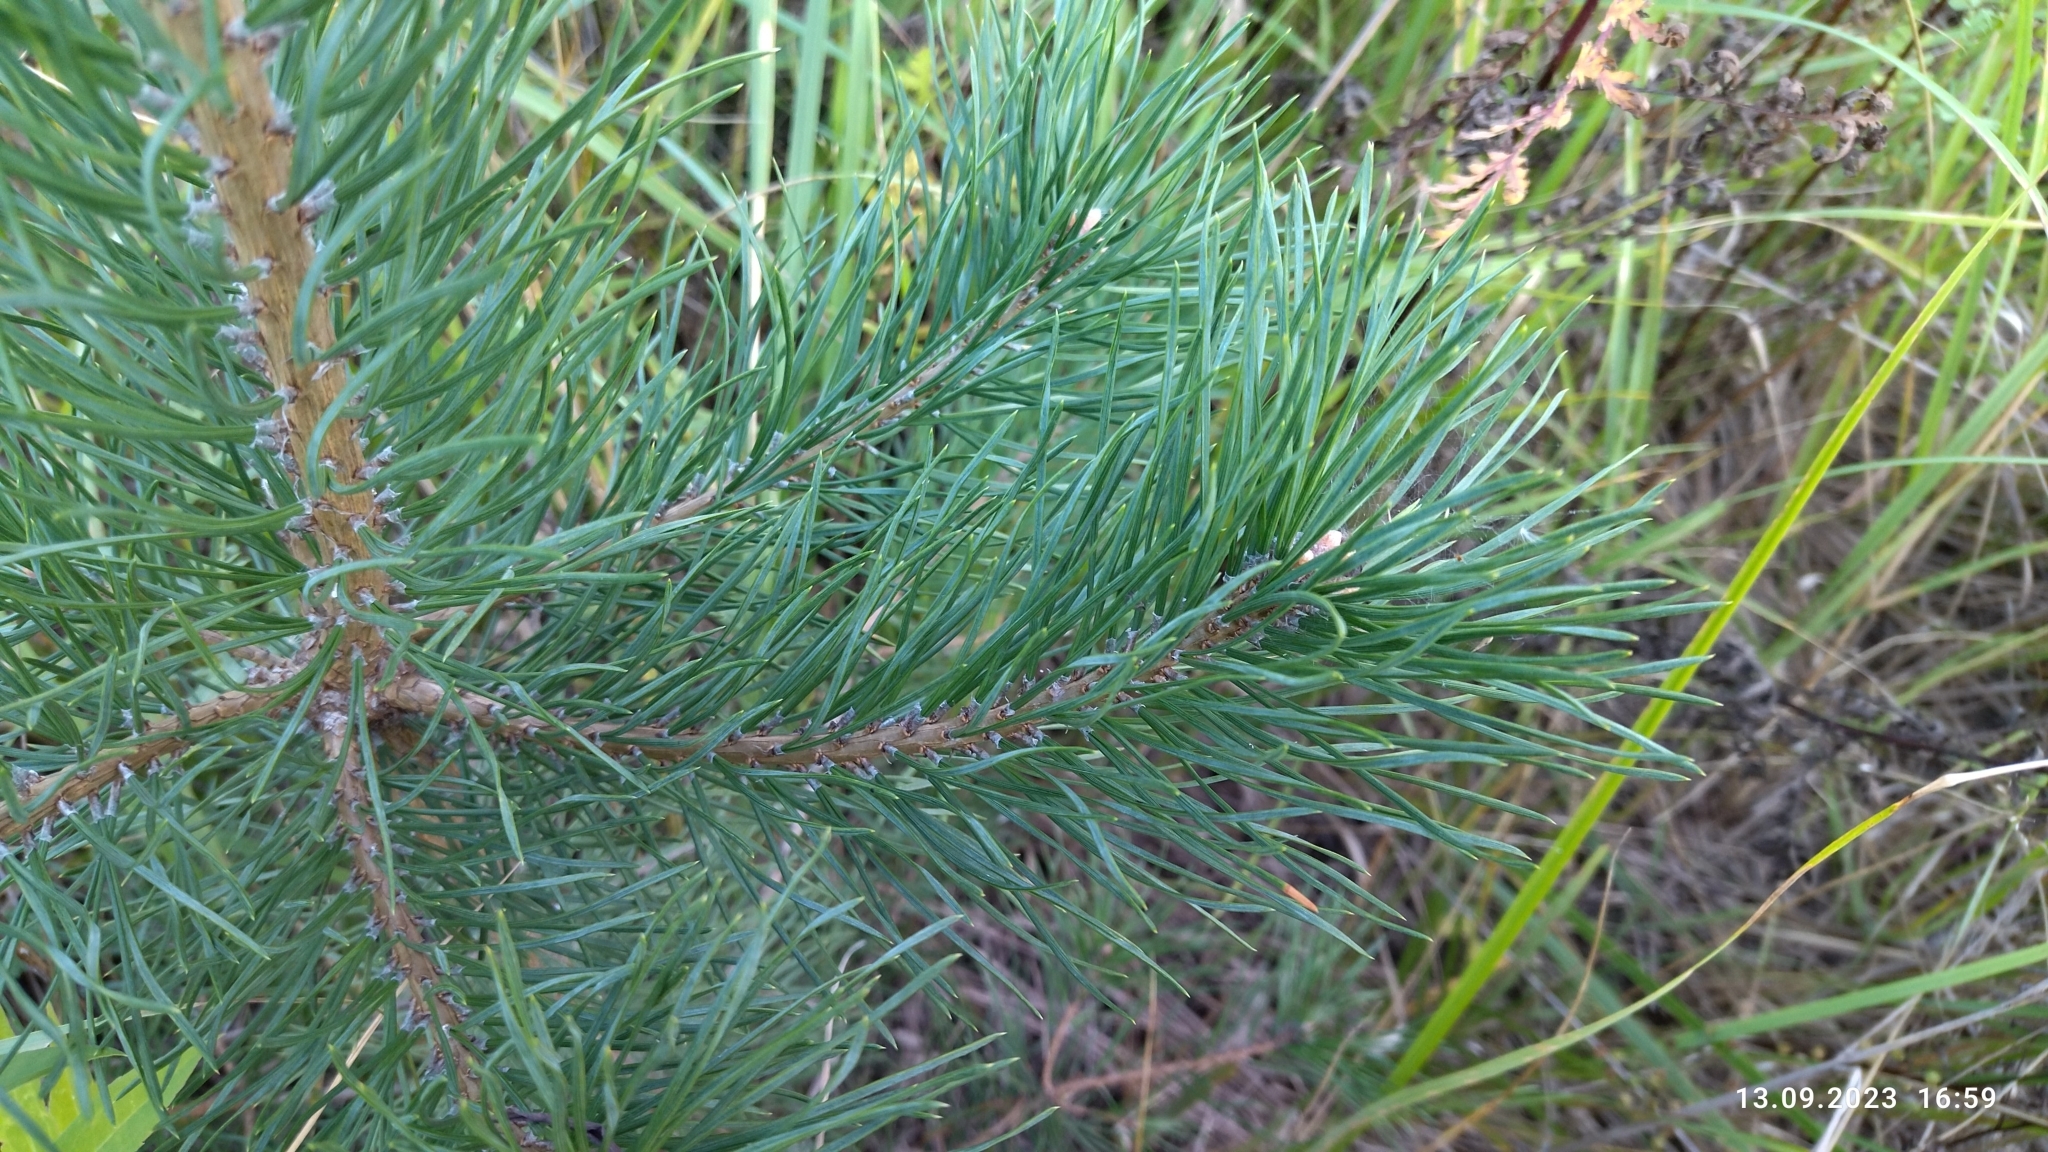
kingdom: Plantae
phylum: Tracheophyta
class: Pinopsida
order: Pinales
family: Pinaceae
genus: Pinus
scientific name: Pinus sylvestris
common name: Scots pine
